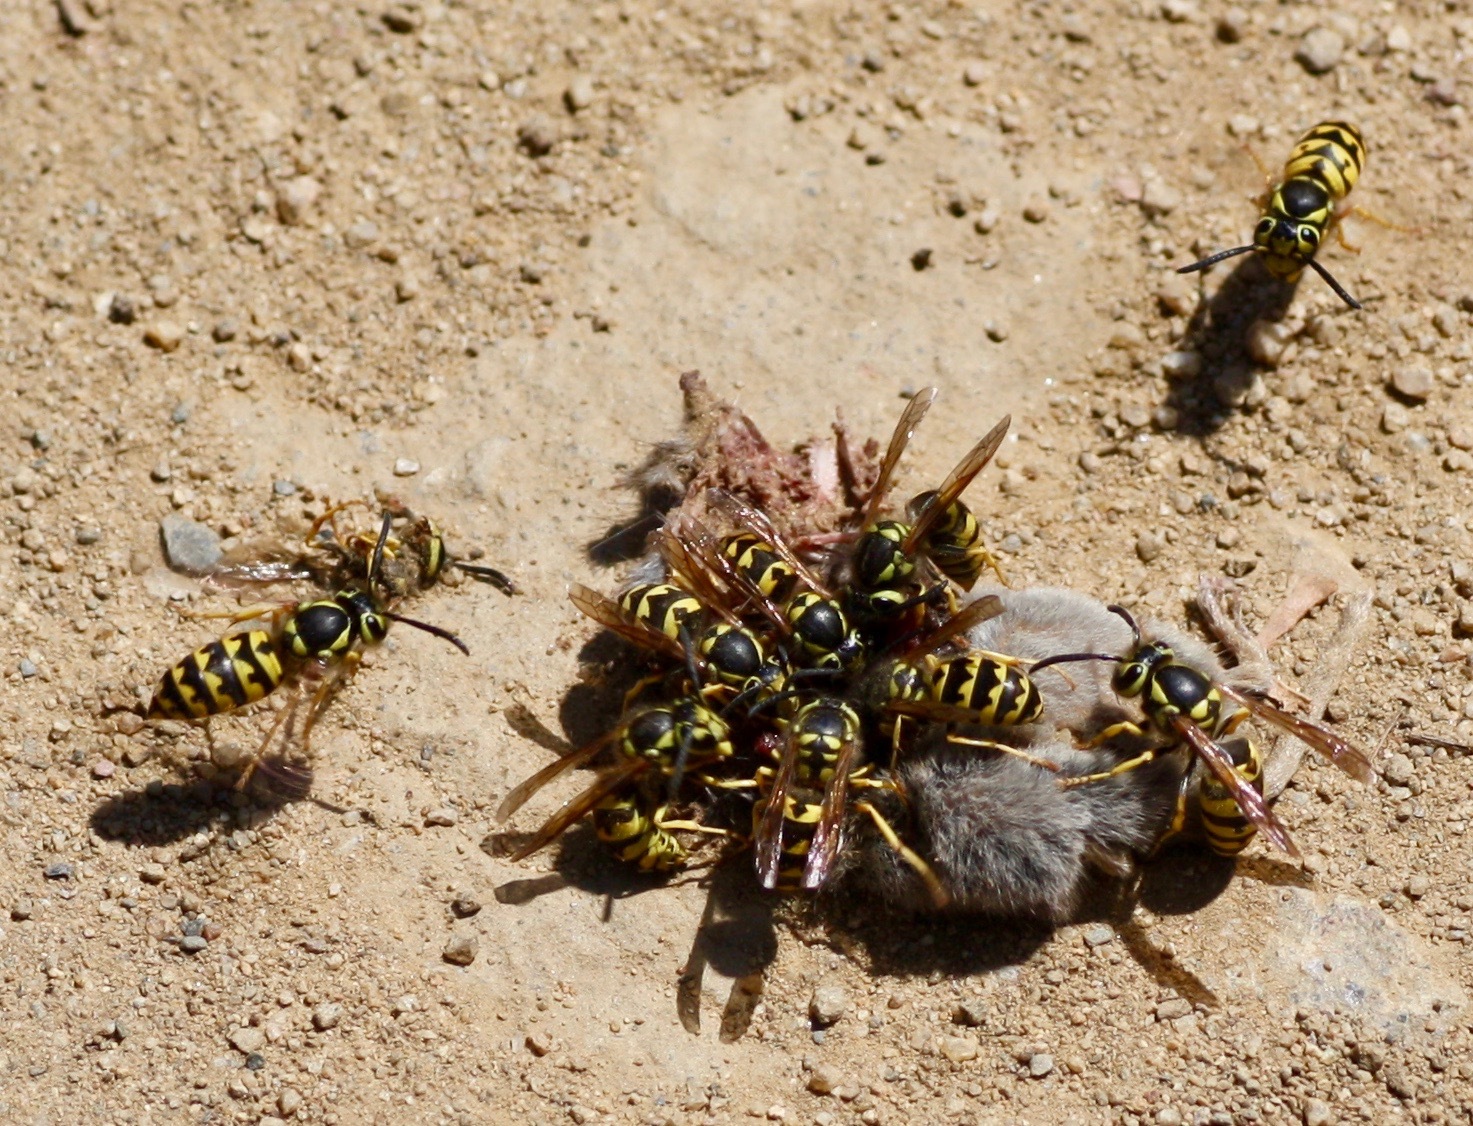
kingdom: Animalia
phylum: Arthropoda
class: Insecta
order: Hymenoptera
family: Vespidae
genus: Vespula
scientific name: Vespula pensylvanica
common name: Western yellowjacket
